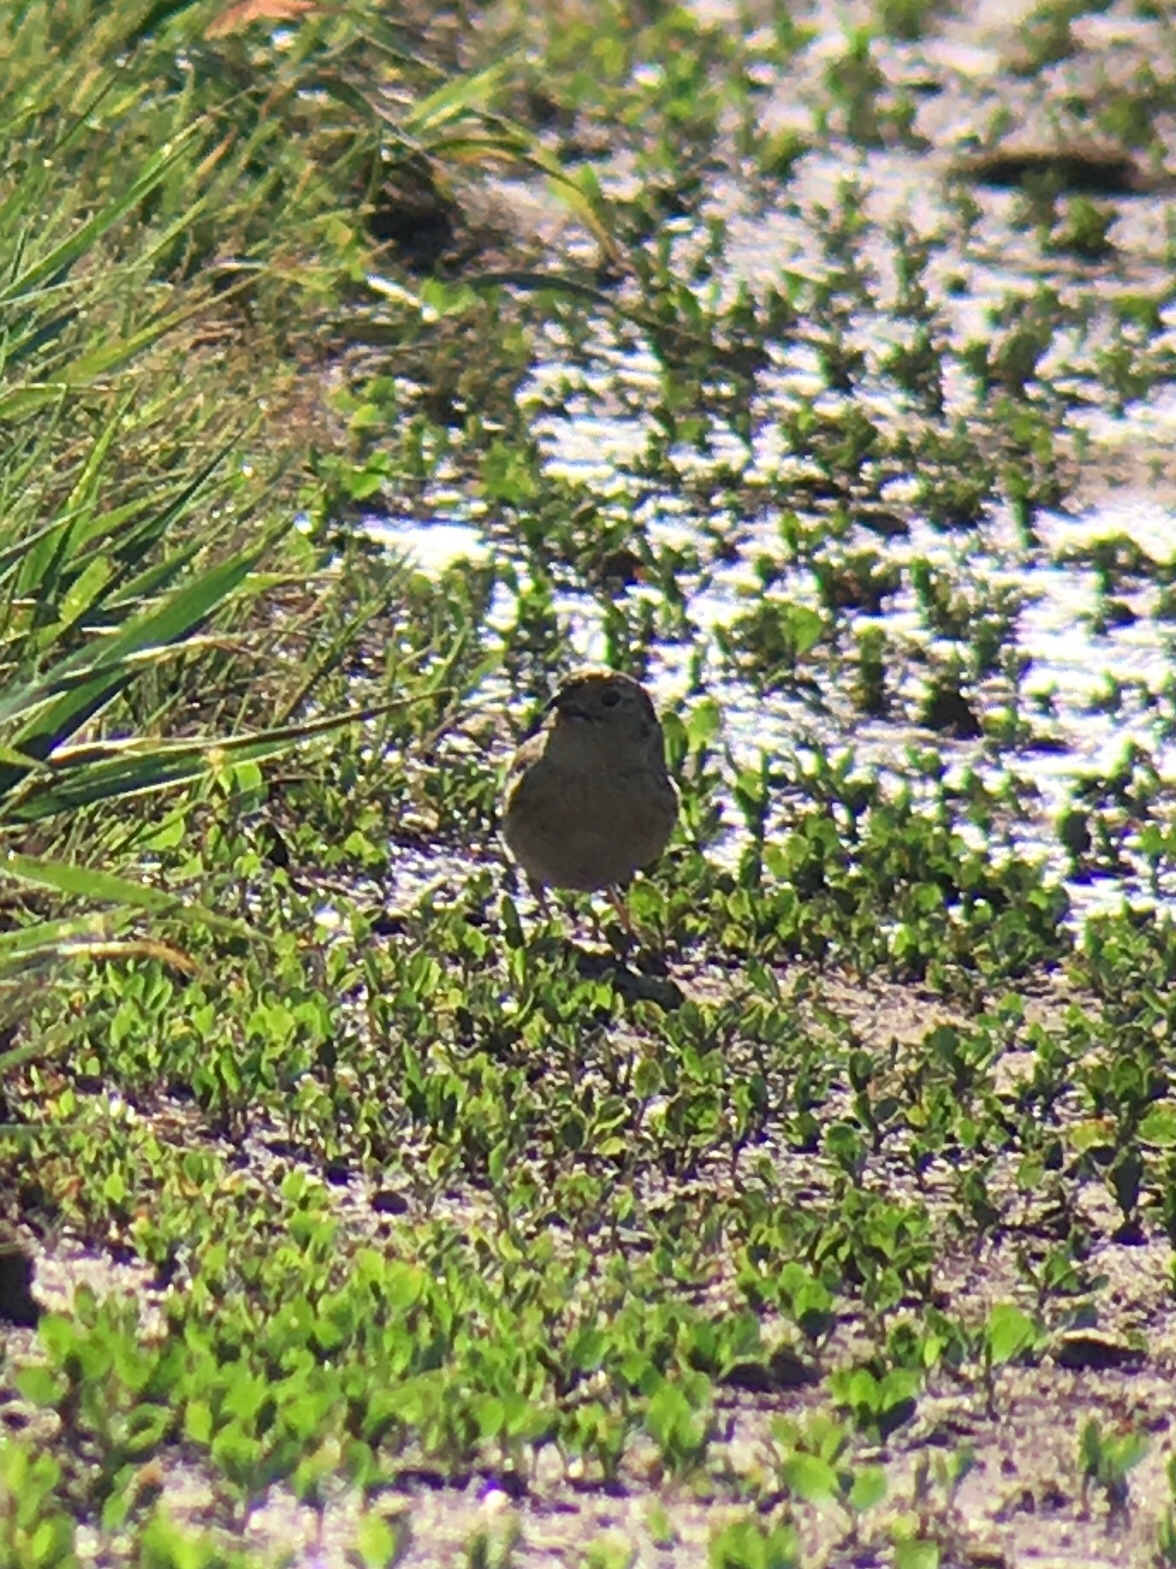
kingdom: Animalia
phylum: Chordata
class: Aves
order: Passeriformes
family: Passerellidae
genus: Ammodramus
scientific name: Ammodramus savannarum
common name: Grasshopper sparrow
